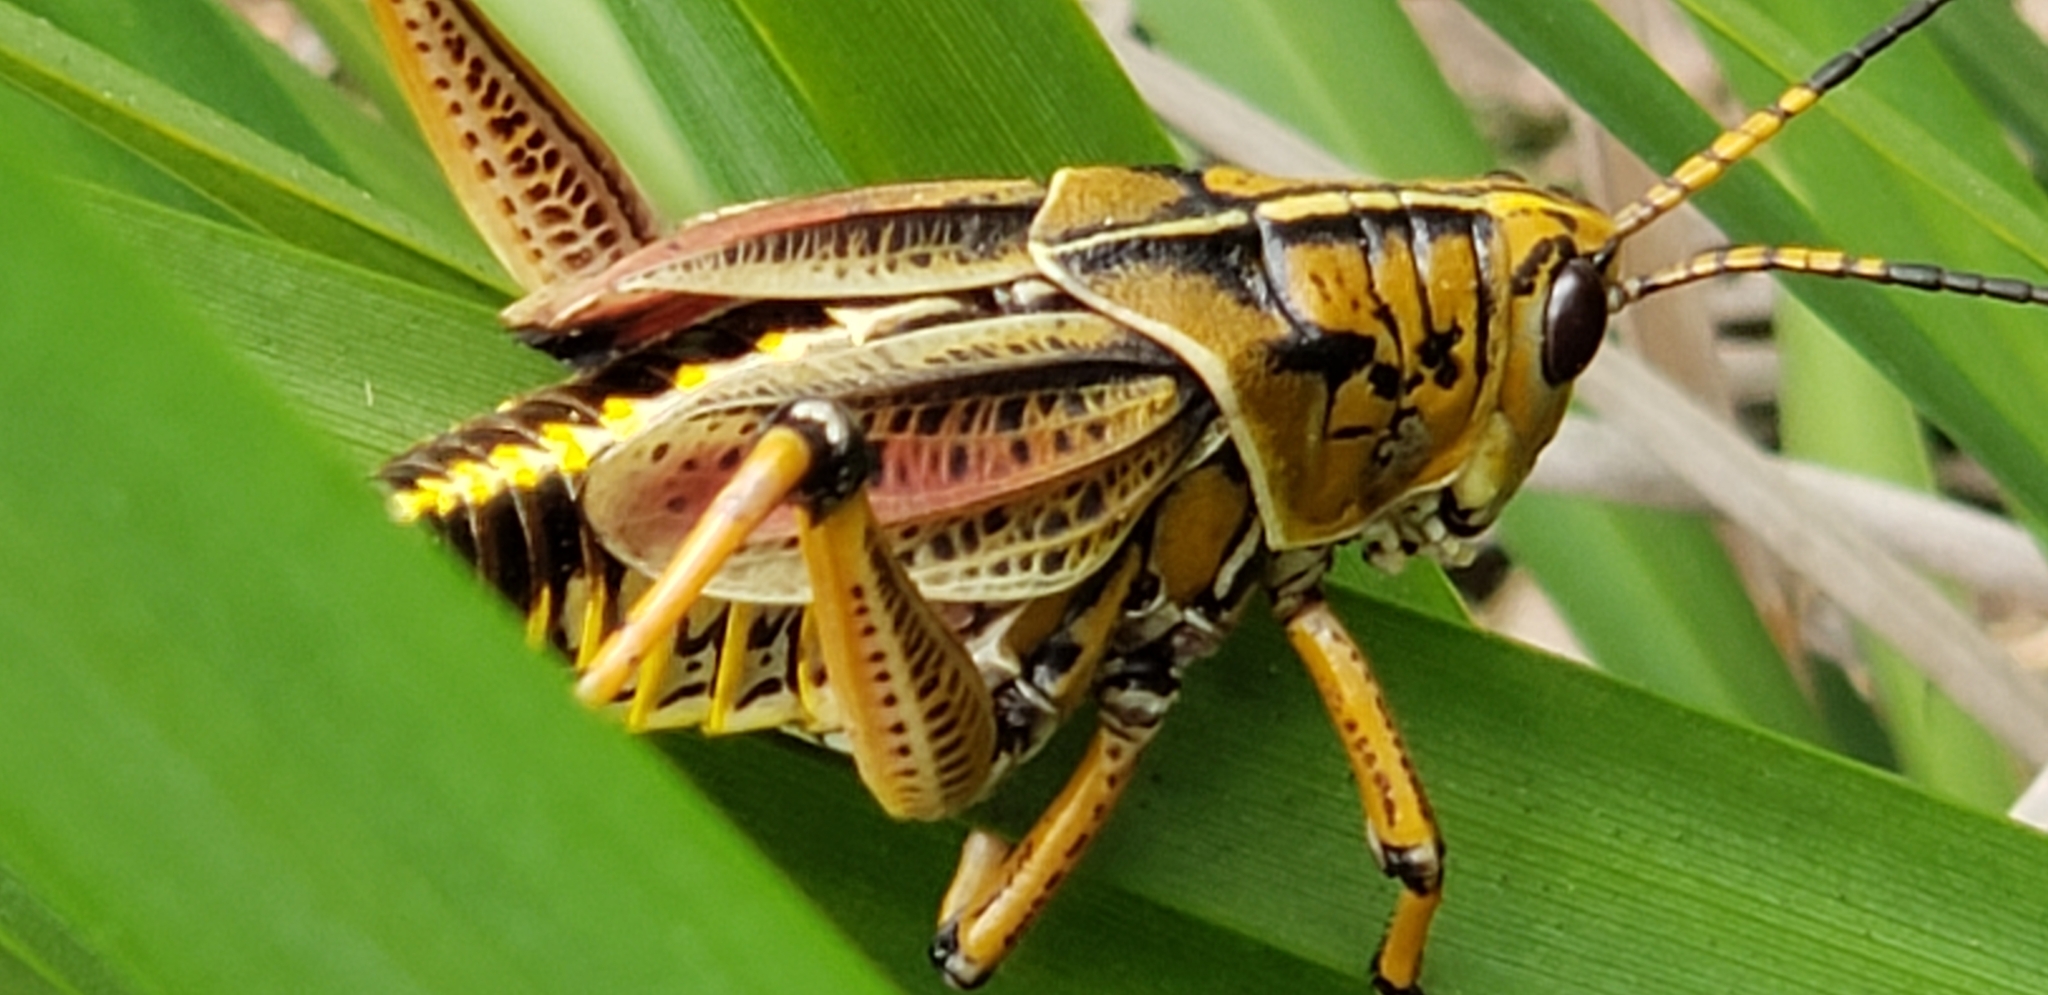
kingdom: Animalia
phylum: Arthropoda
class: Insecta
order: Orthoptera
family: Romaleidae
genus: Romalea
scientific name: Romalea microptera
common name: Eastern lubber grasshopper
